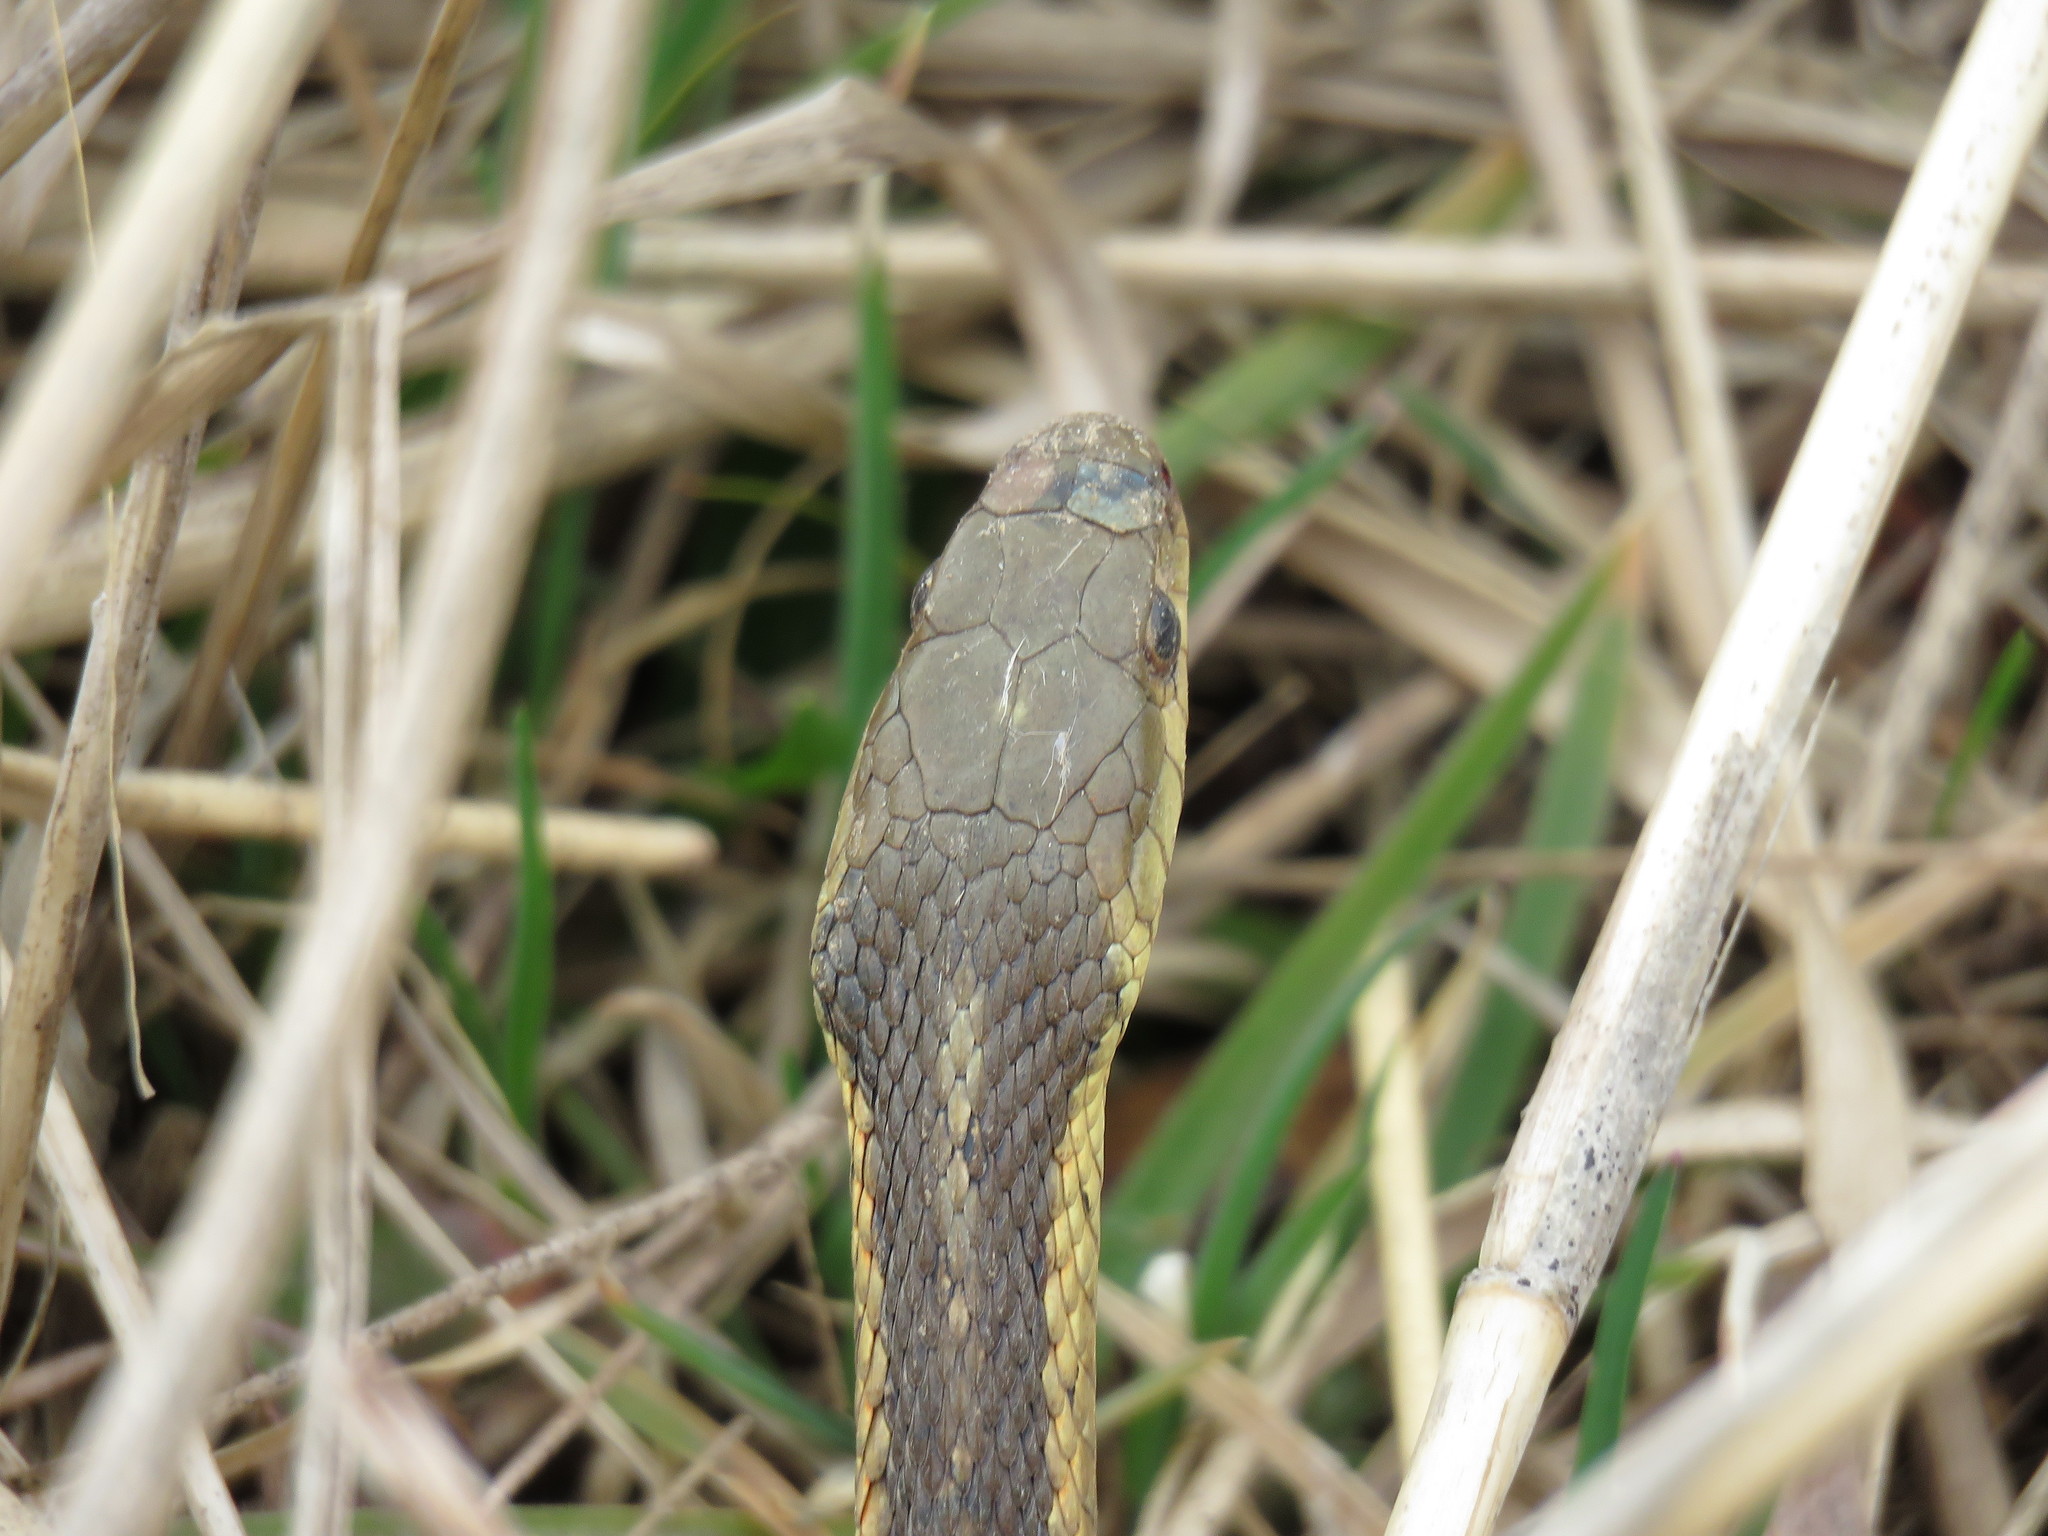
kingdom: Animalia
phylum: Chordata
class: Squamata
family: Colubridae
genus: Thamnophis
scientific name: Thamnophis sirtalis
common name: Common garter snake
